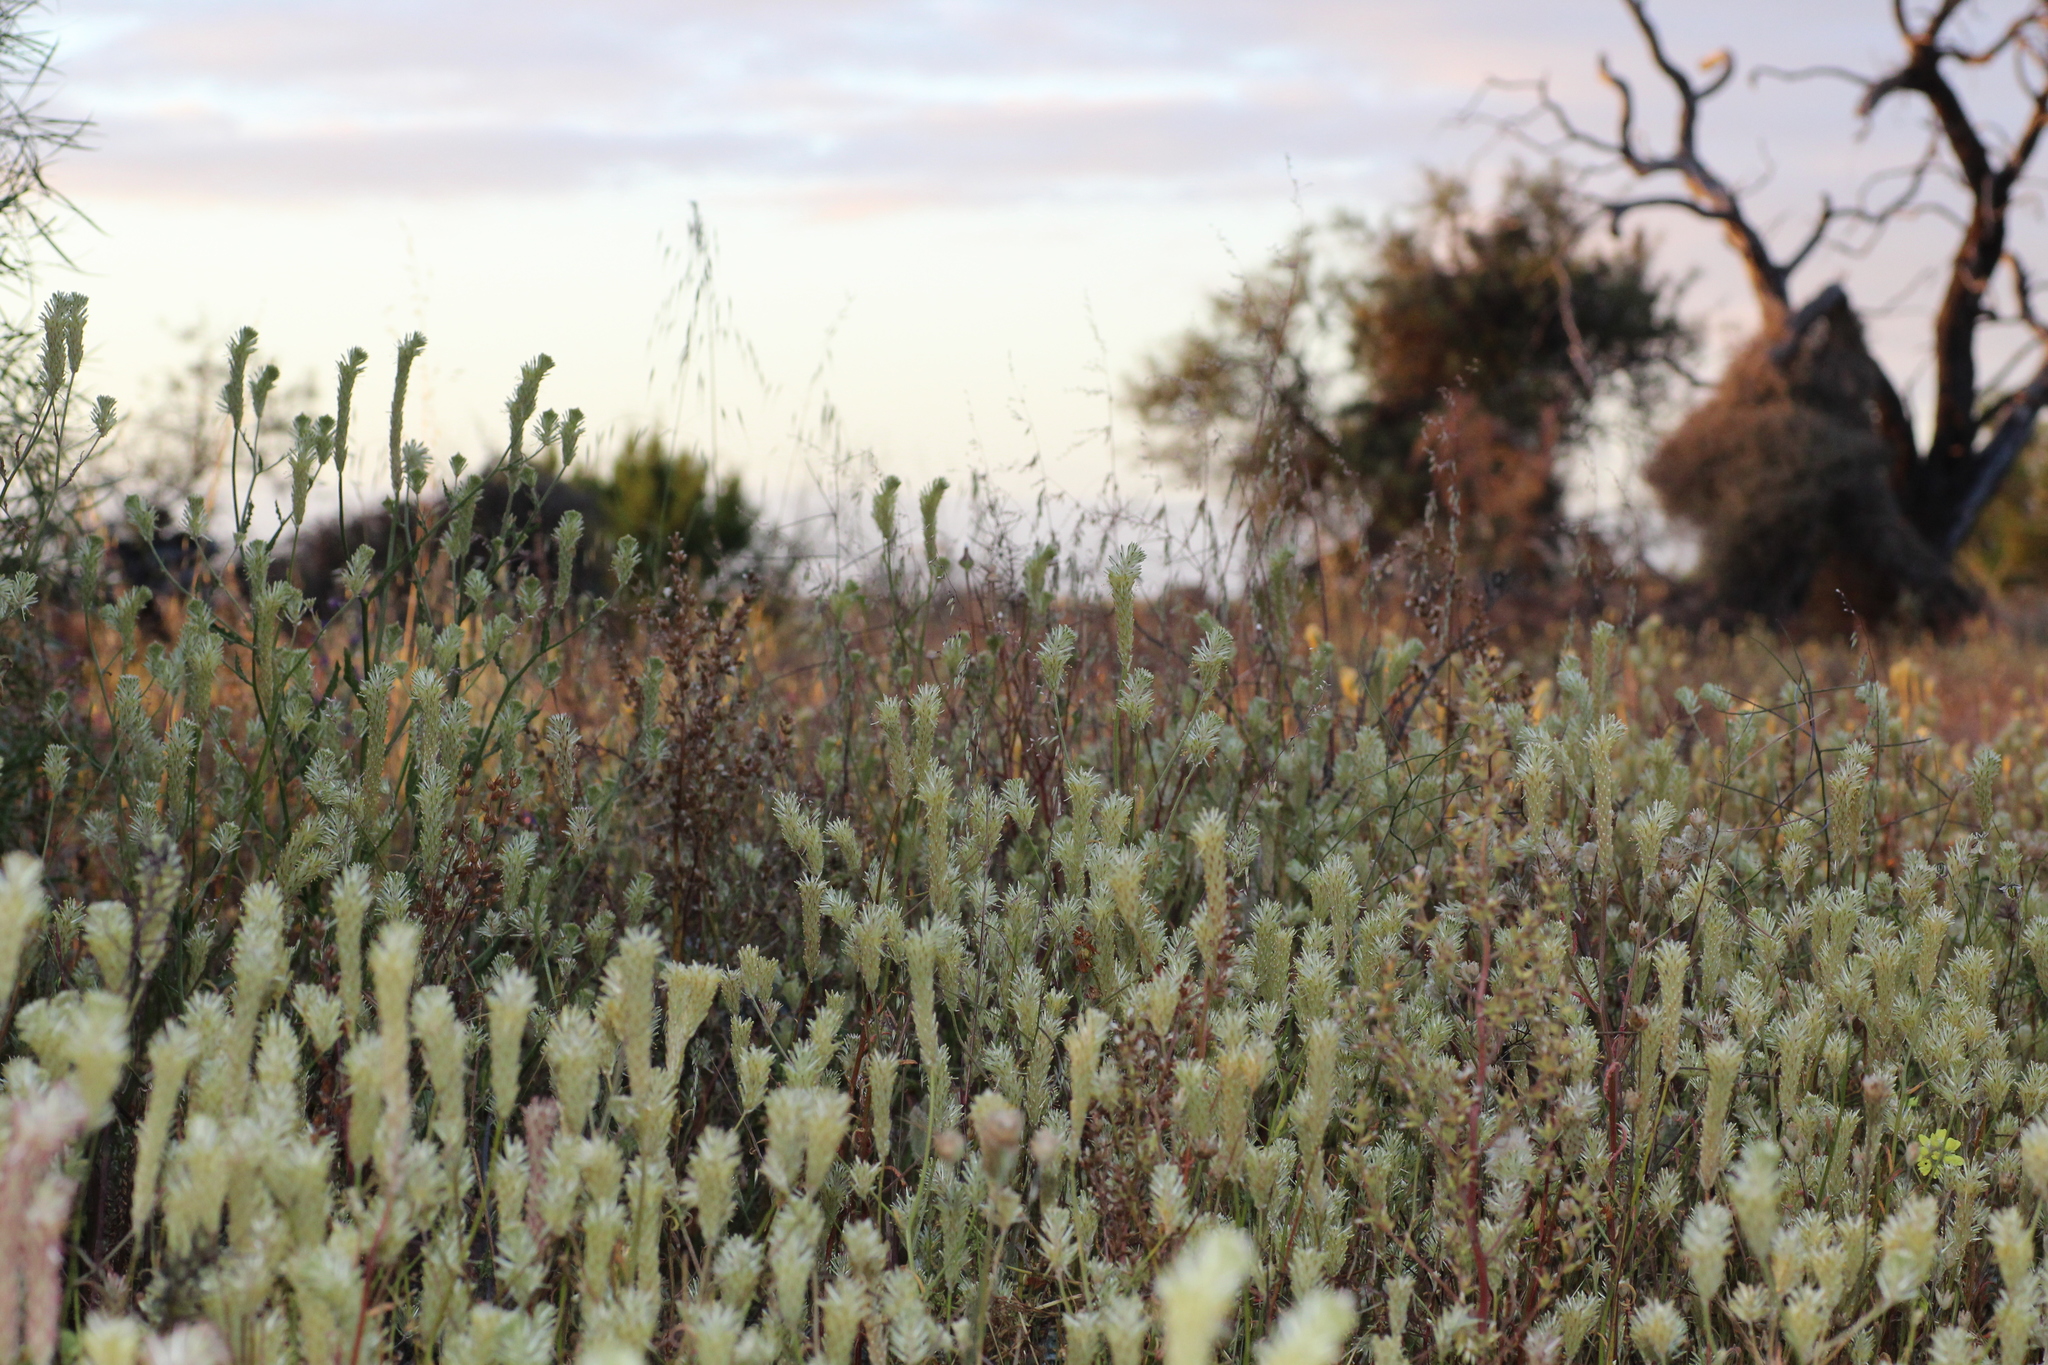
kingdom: Plantae
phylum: Tracheophyta
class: Magnoliopsida
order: Caryophyllales
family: Amaranthaceae
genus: Ptilotus
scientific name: Ptilotus polystachyus
